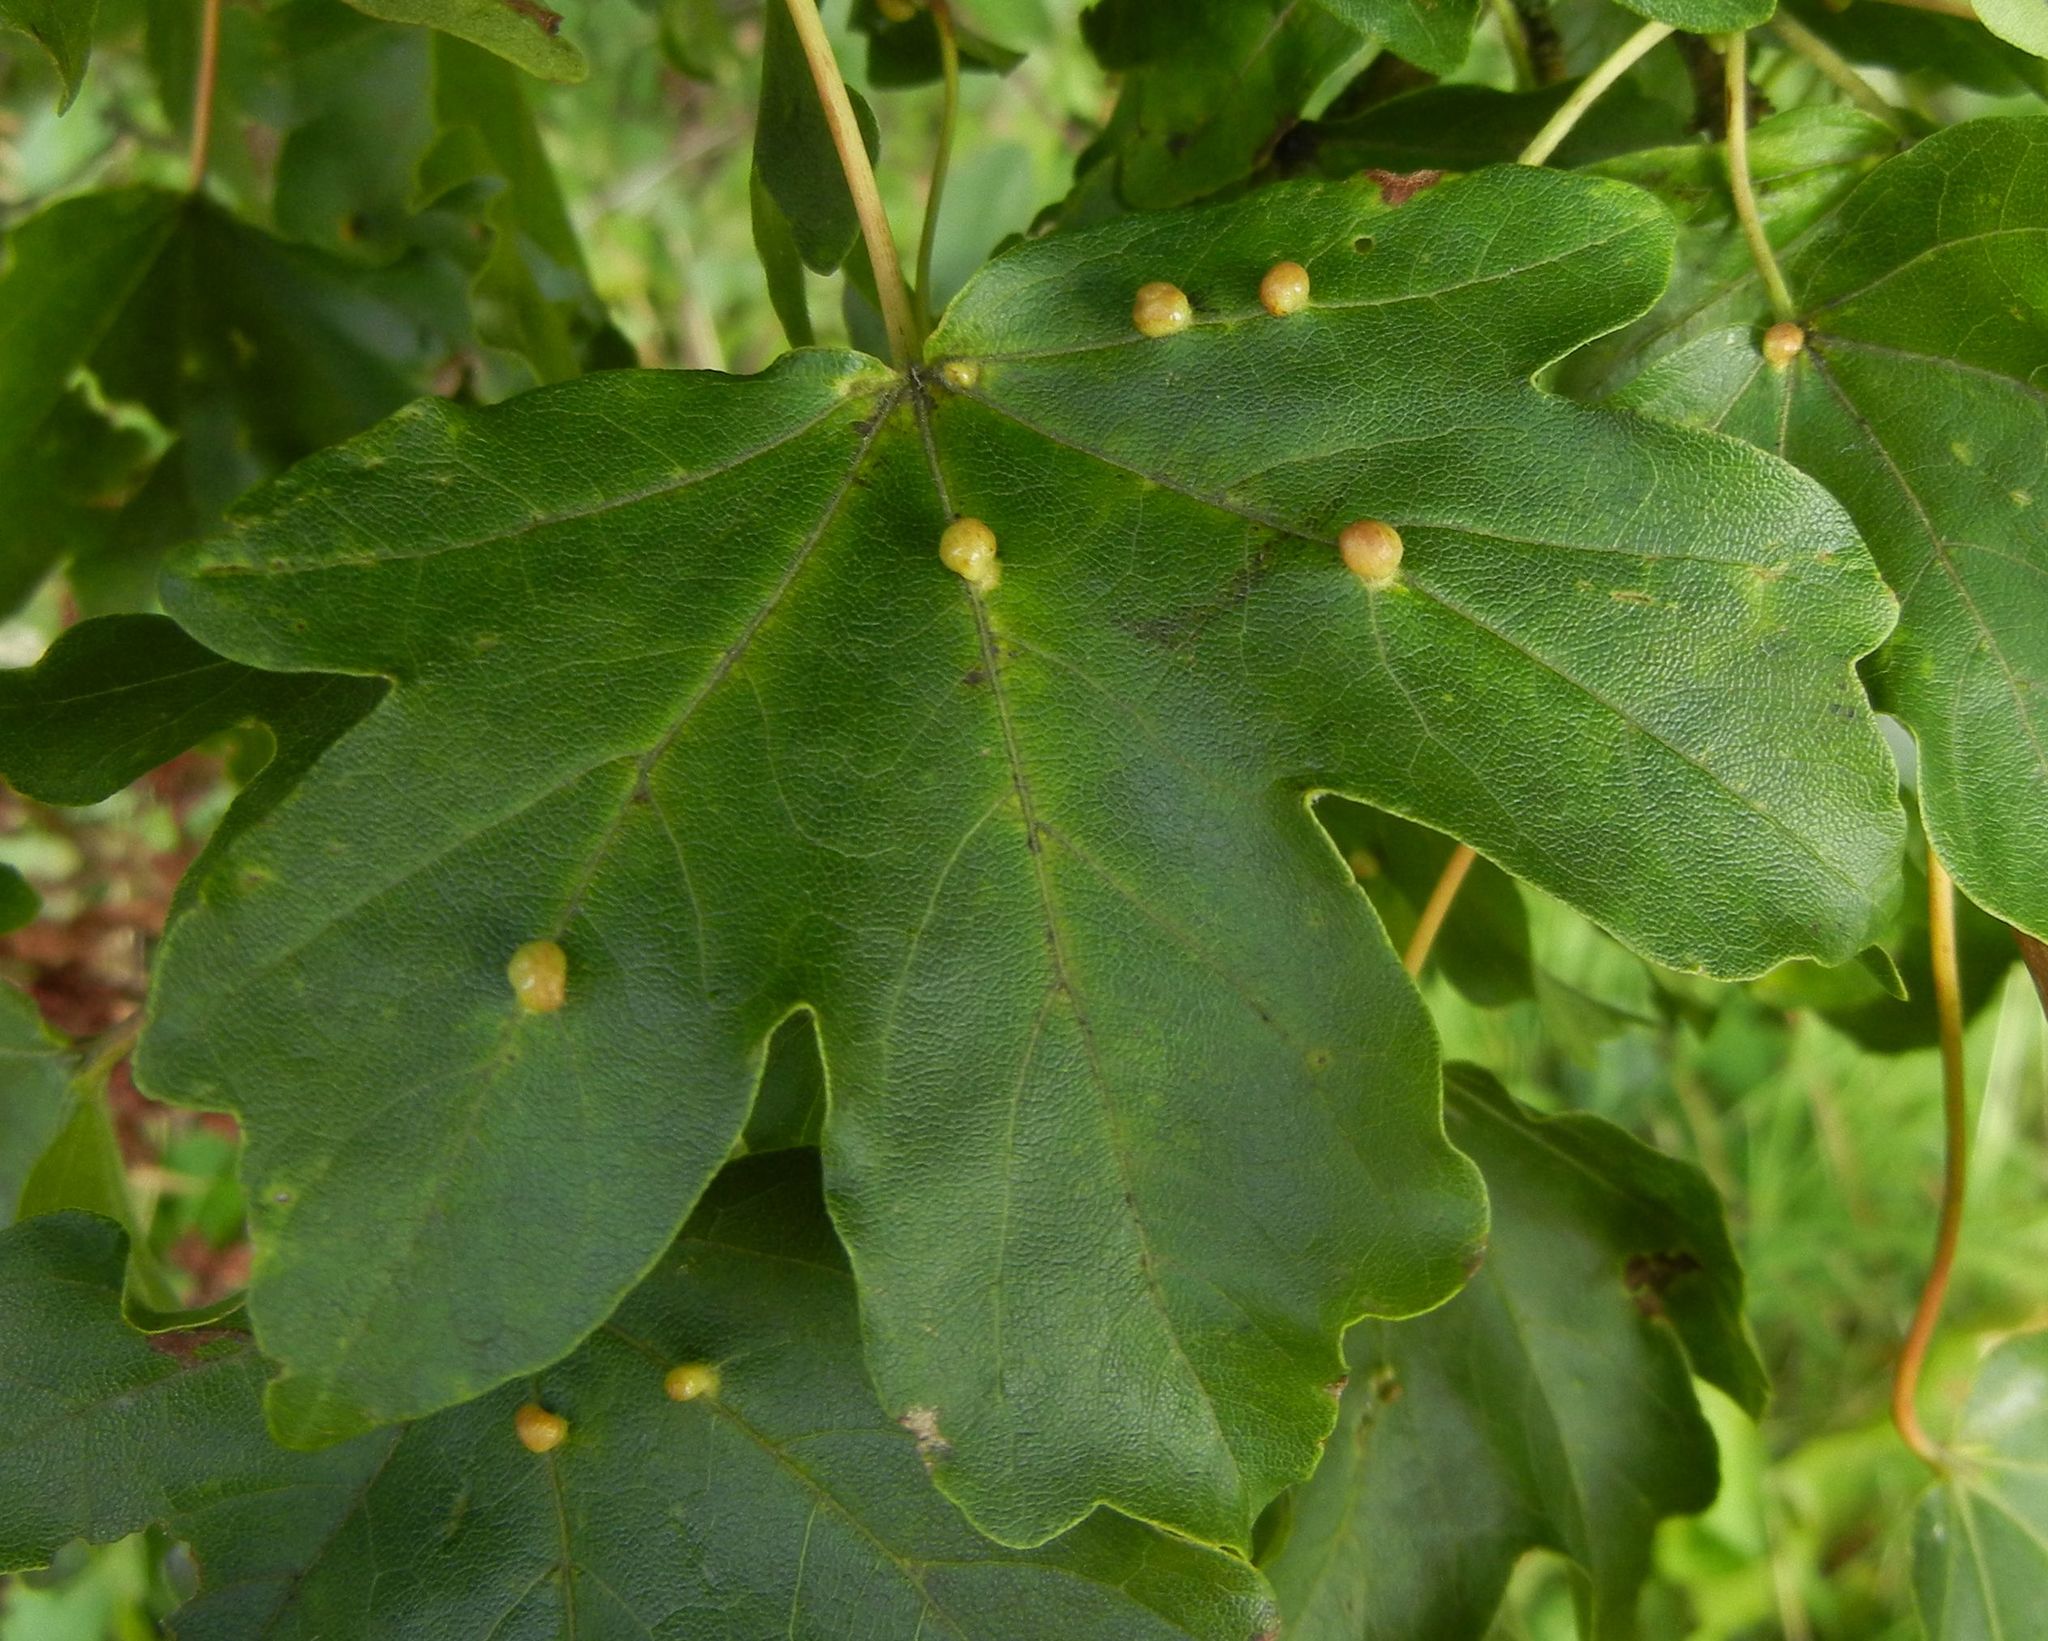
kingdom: Animalia
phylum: Arthropoda
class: Arachnida
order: Trombidiformes
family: Eriophyidae
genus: Aceria
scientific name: Aceria macrochelus
